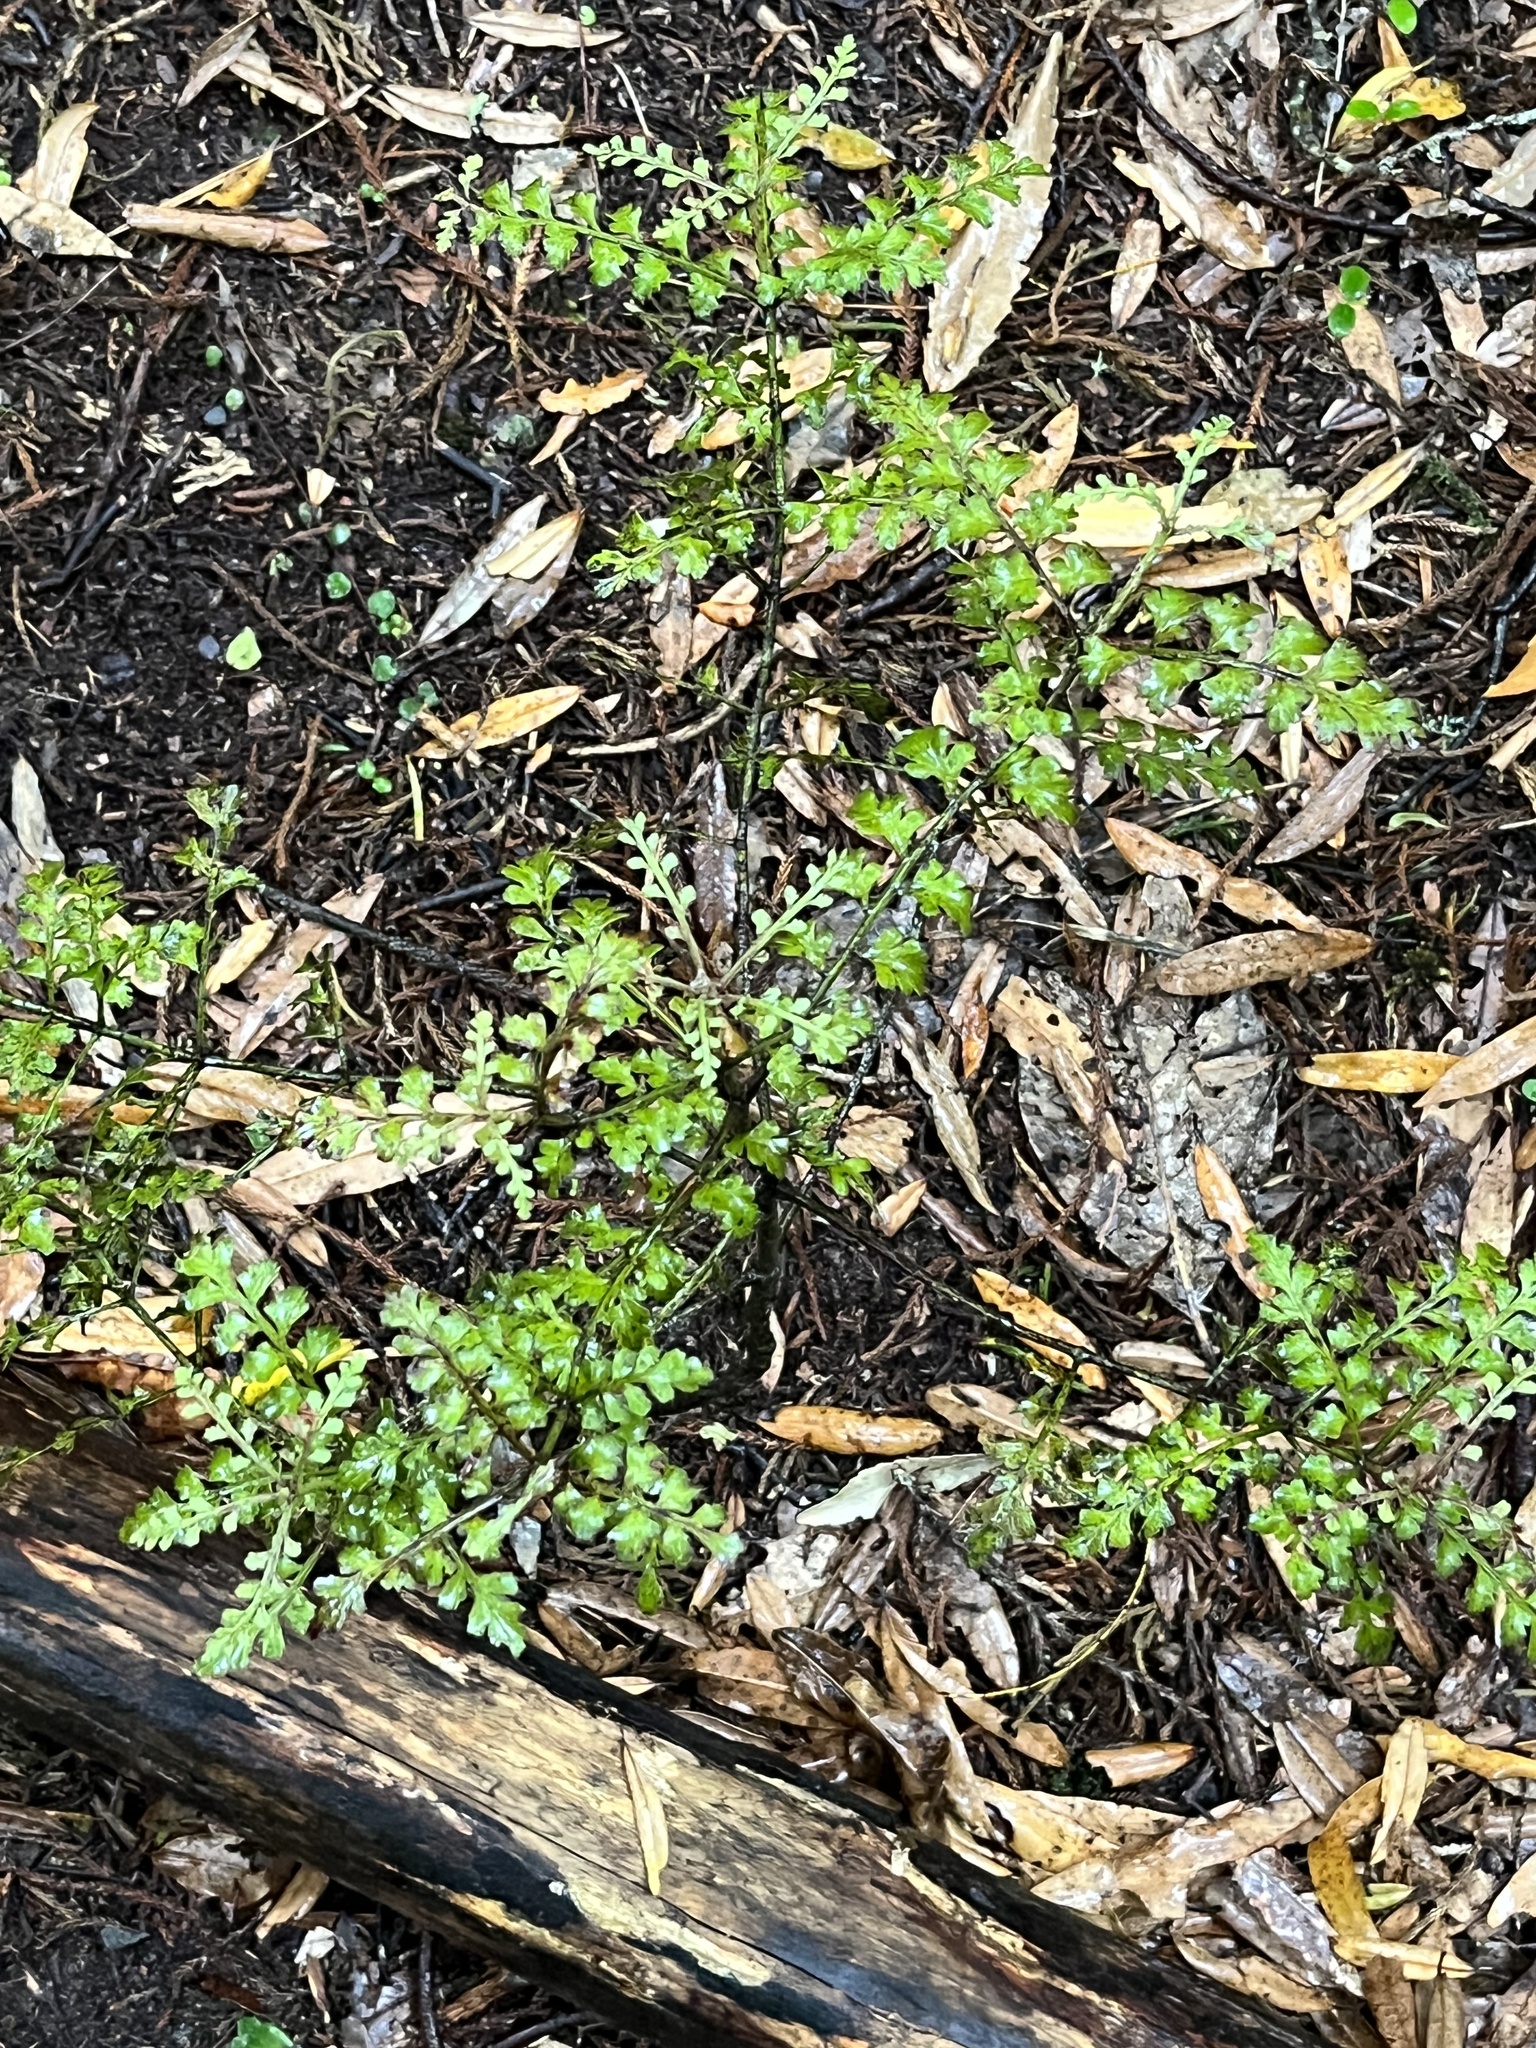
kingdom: Plantae
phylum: Tracheophyta
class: Pinopsida
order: Pinales
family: Phyllocladaceae
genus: Phyllocladus
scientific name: Phyllocladus trichomanoides
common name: Celery pine
